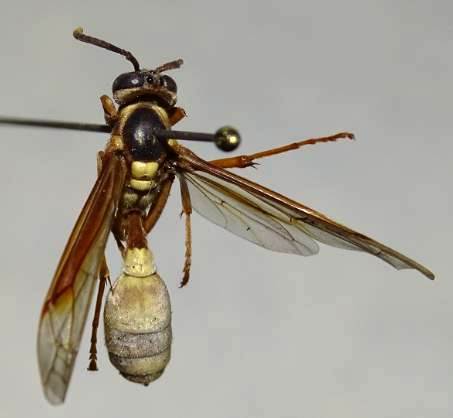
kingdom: Animalia
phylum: Arthropoda
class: Insecta
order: Hymenoptera
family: Vespidae
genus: Apoica
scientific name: Apoica pallens
